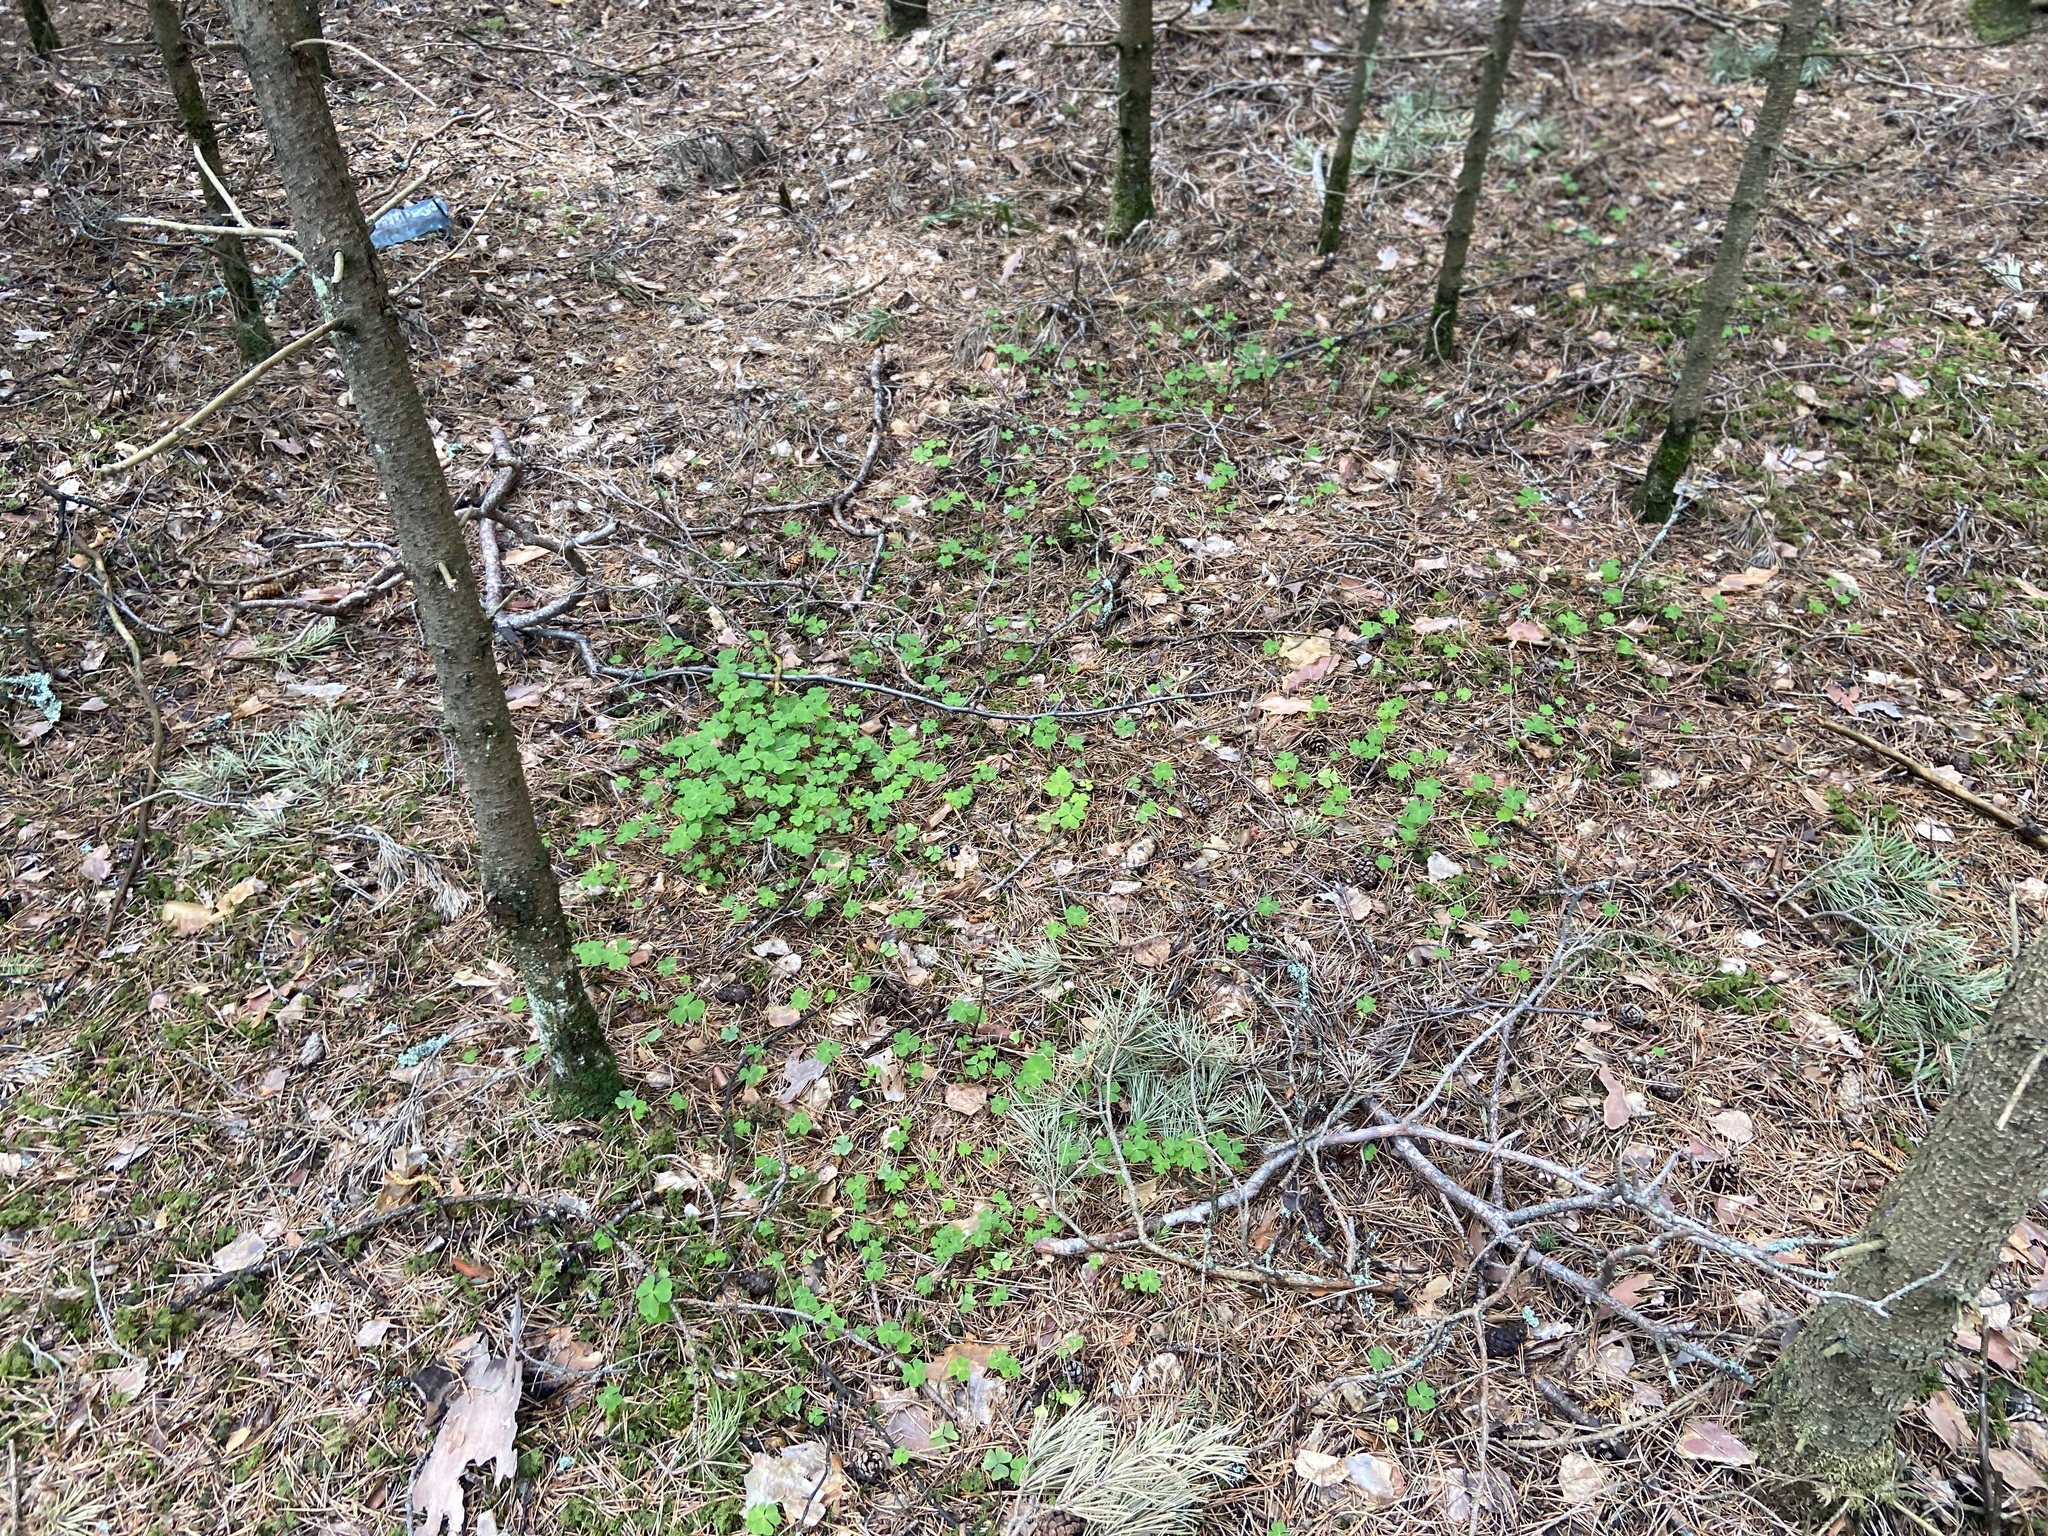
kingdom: Plantae
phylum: Tracheophyta
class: Magnoliopsida
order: Oxalidales
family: Oxalidaceae
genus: Oxalis
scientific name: Oxalis acetosella
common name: Wood-sorrel
